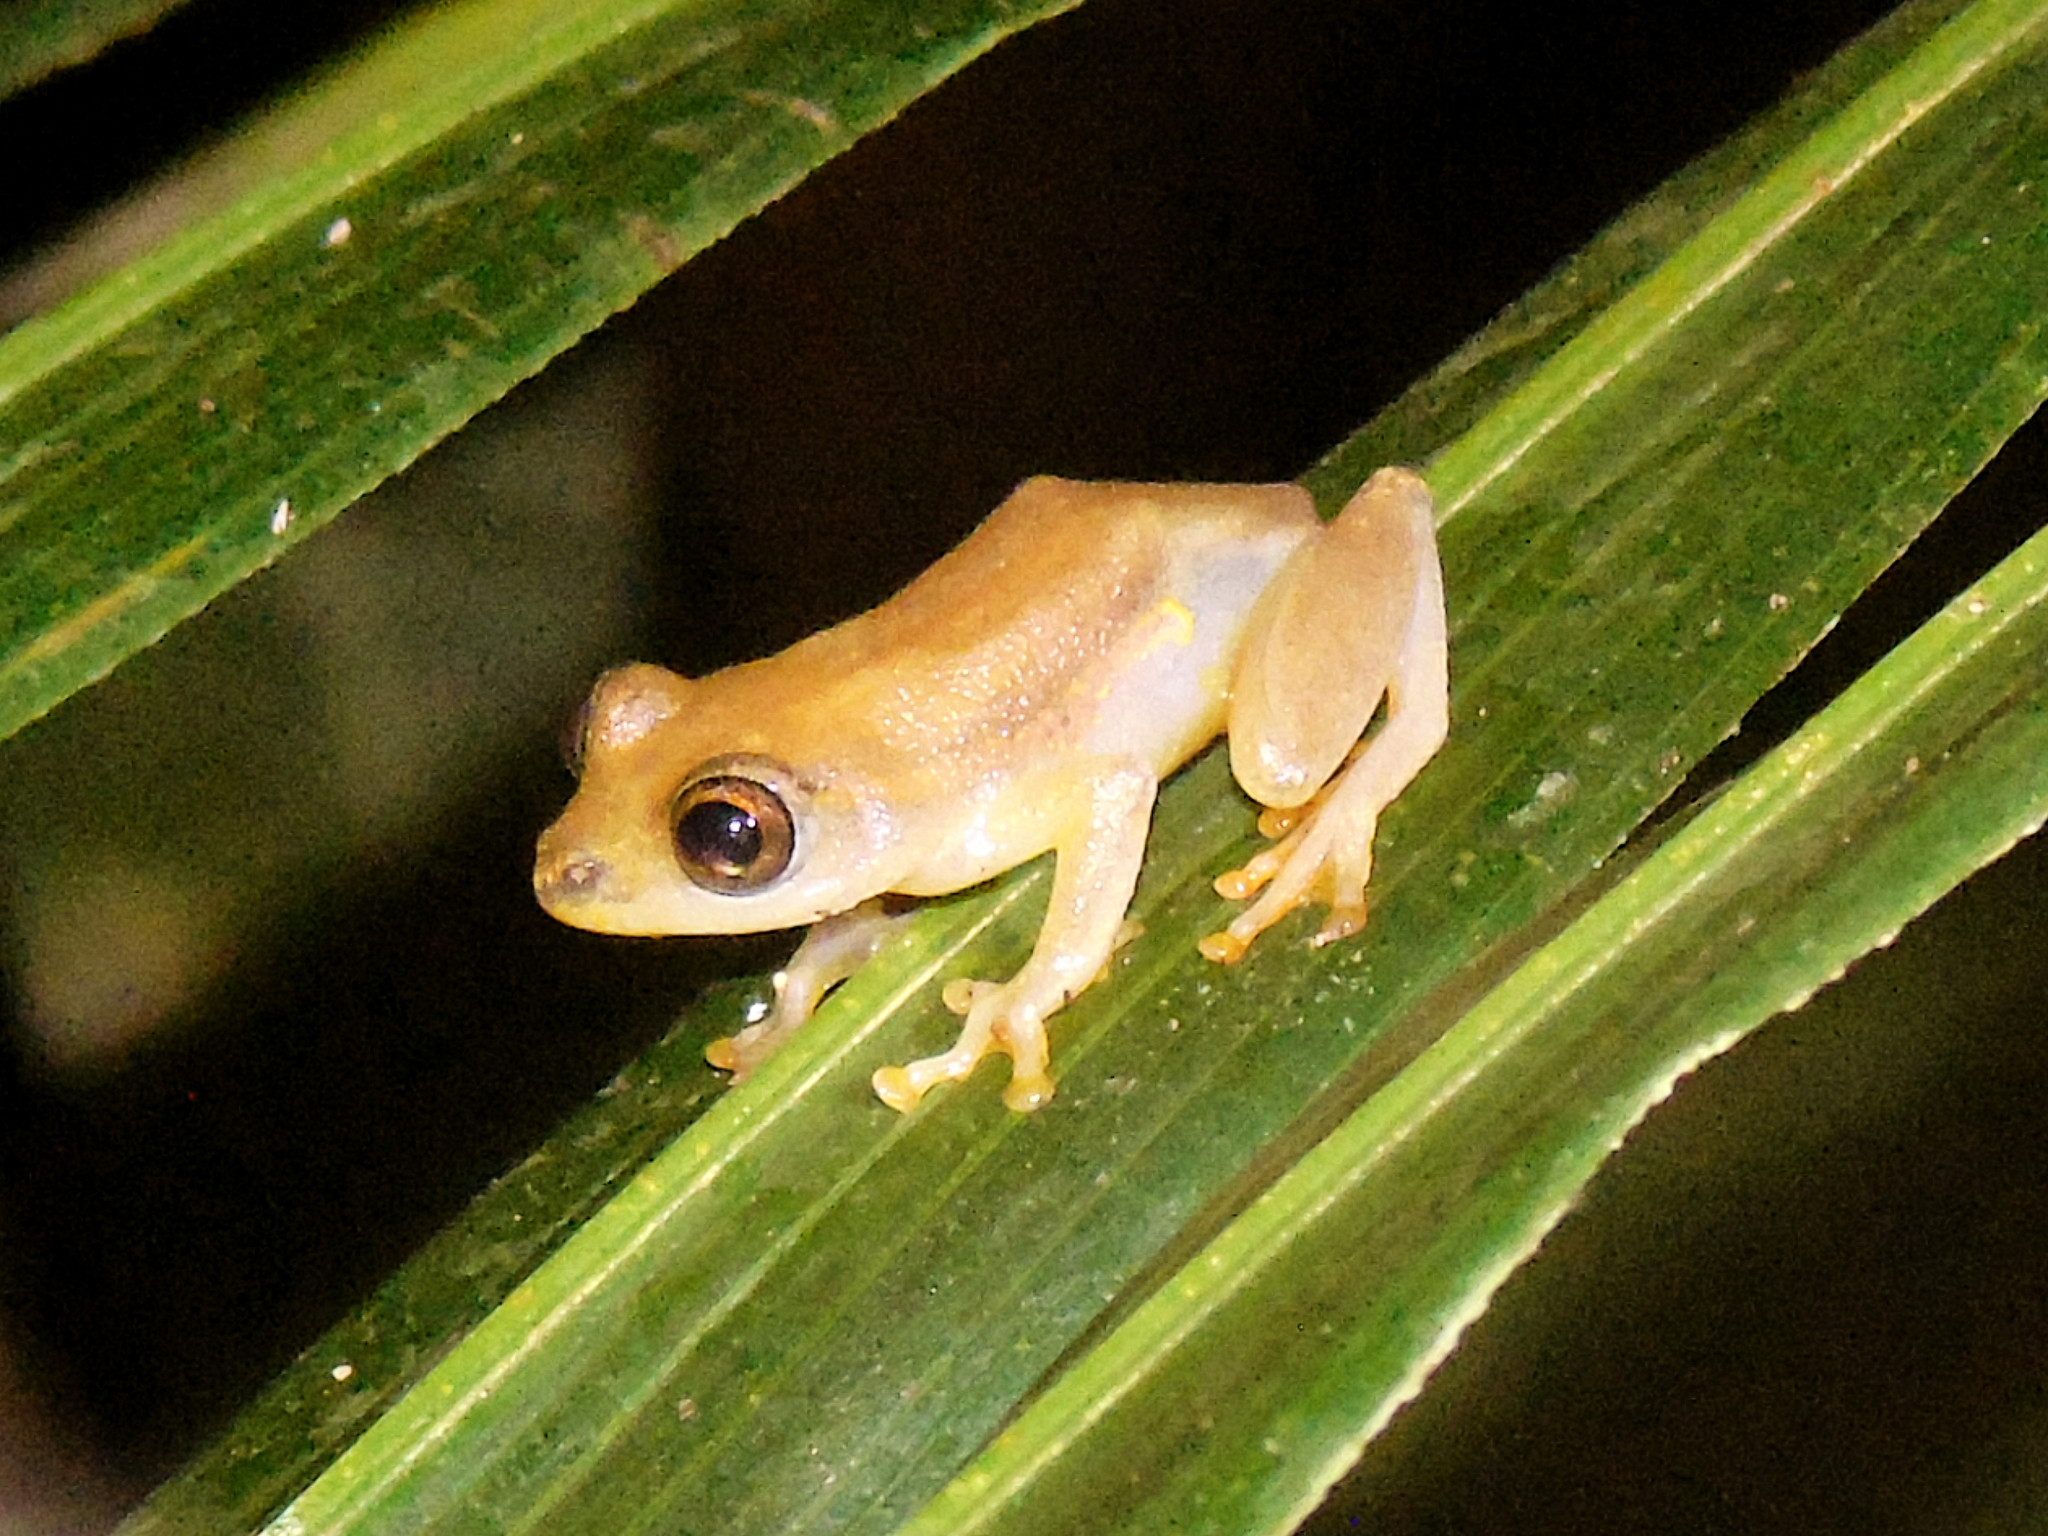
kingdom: Animalia
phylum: Chordata
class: Amphibia
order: Anura
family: Hyperoliidae
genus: Hyperolius
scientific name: Hyperolius mitchelli
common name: Mitchell's reed frog
